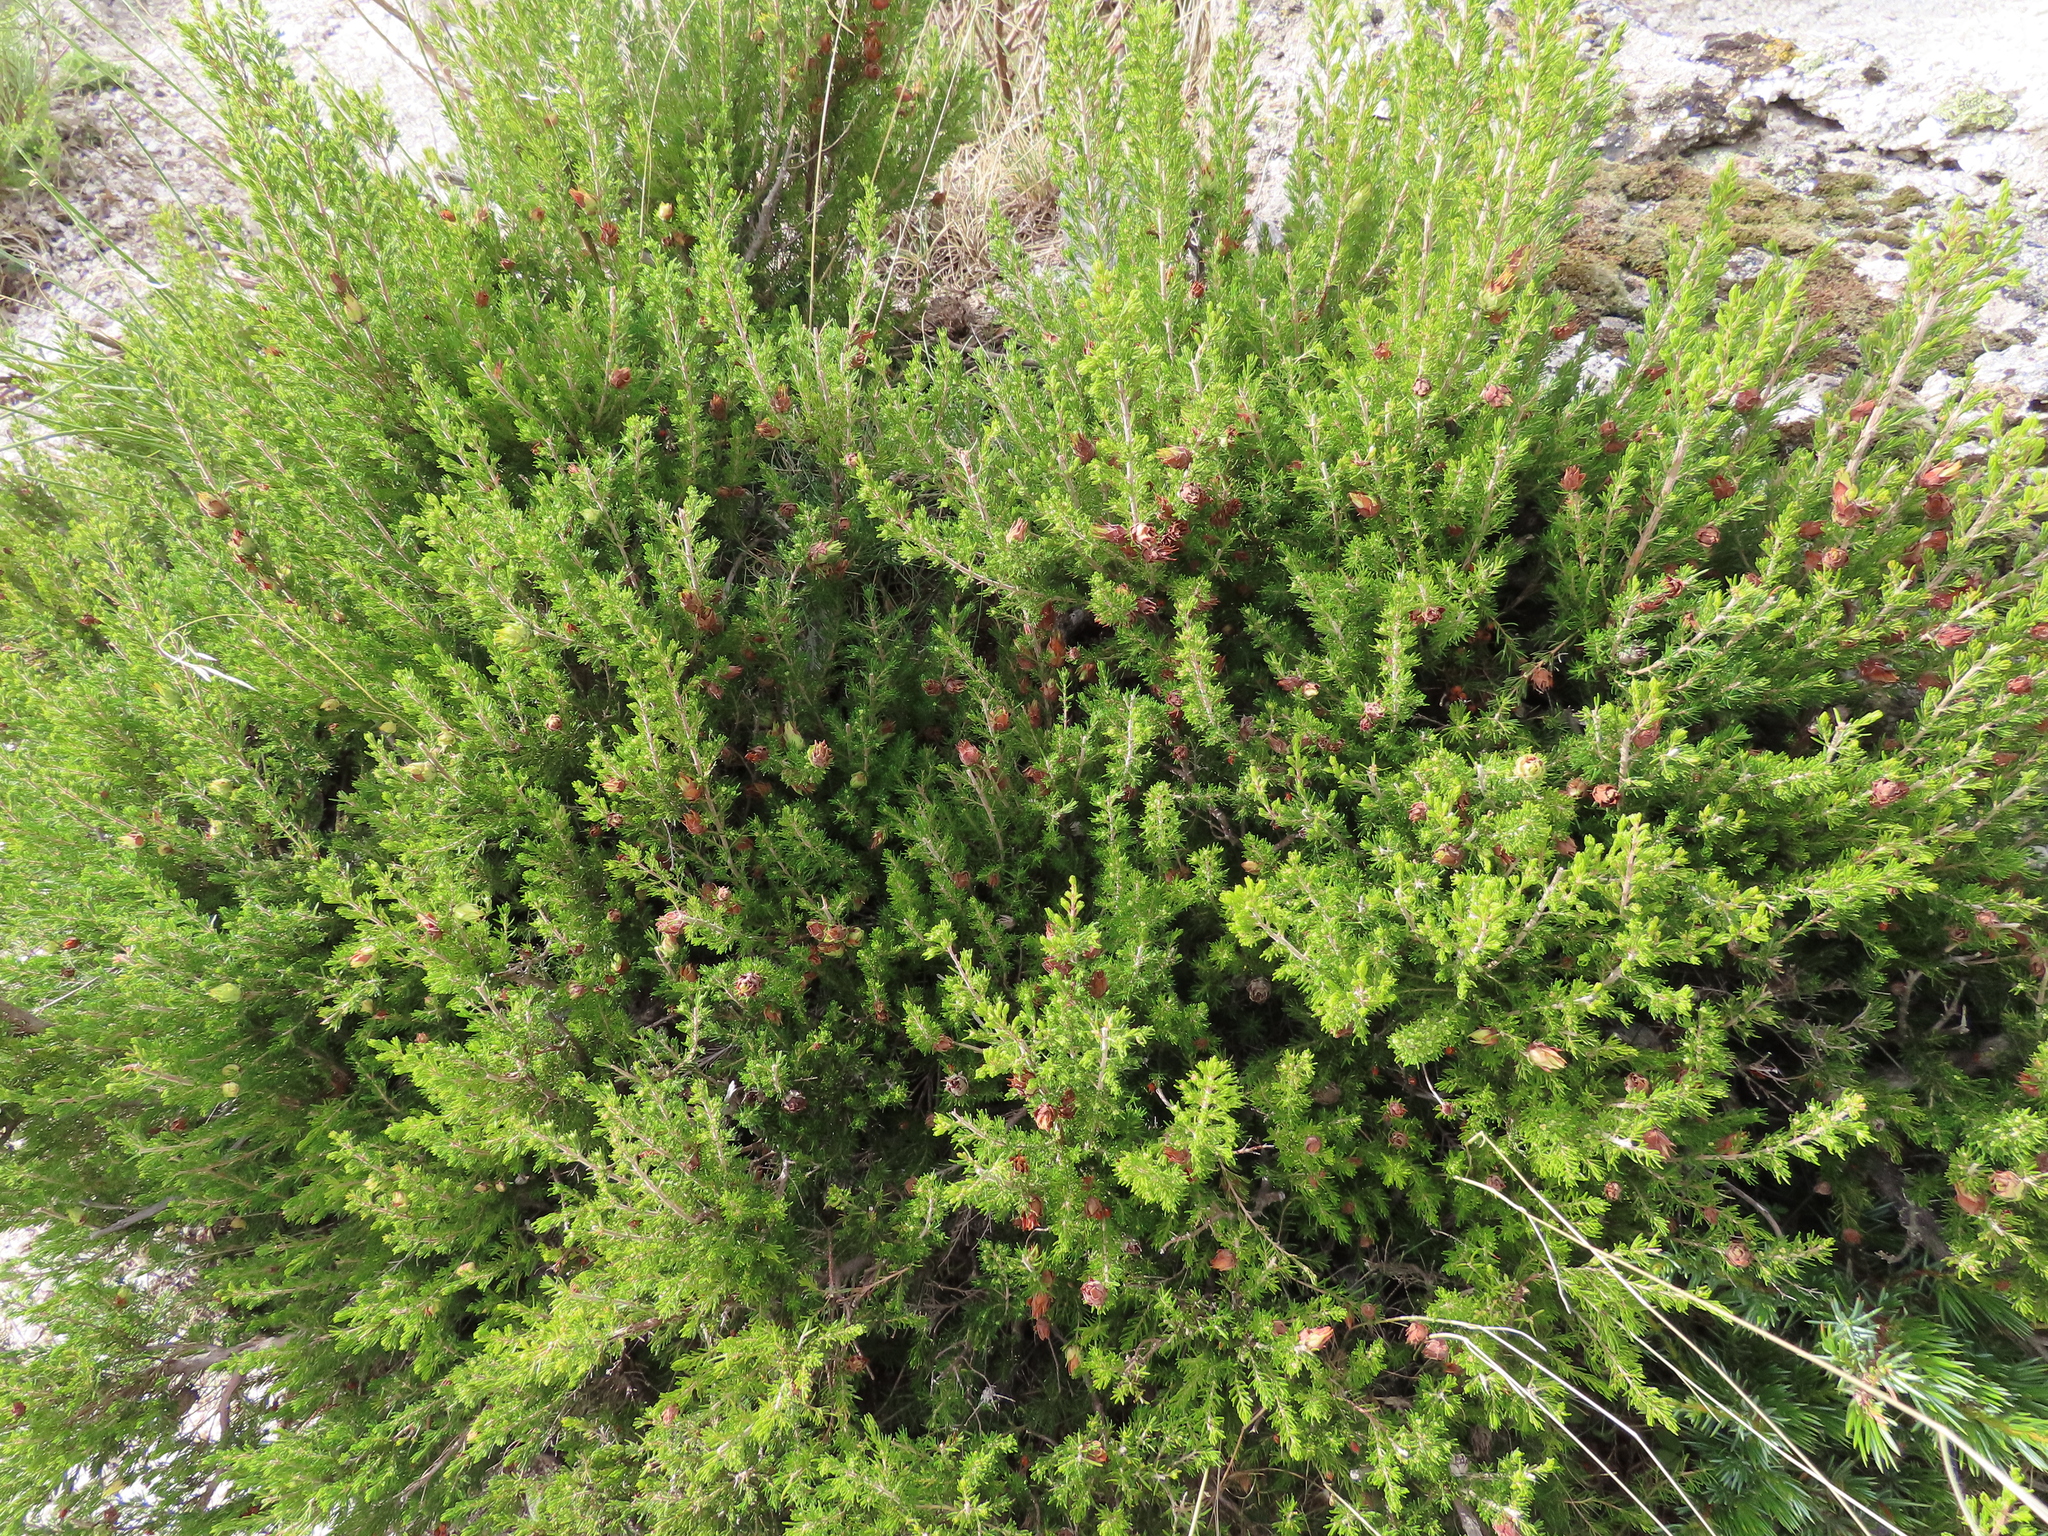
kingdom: Animalia
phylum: Arthropoda
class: Insecta
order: Diptera
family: Cecidomyiidae
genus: Wachtliella
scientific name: Wachtliella ericina
